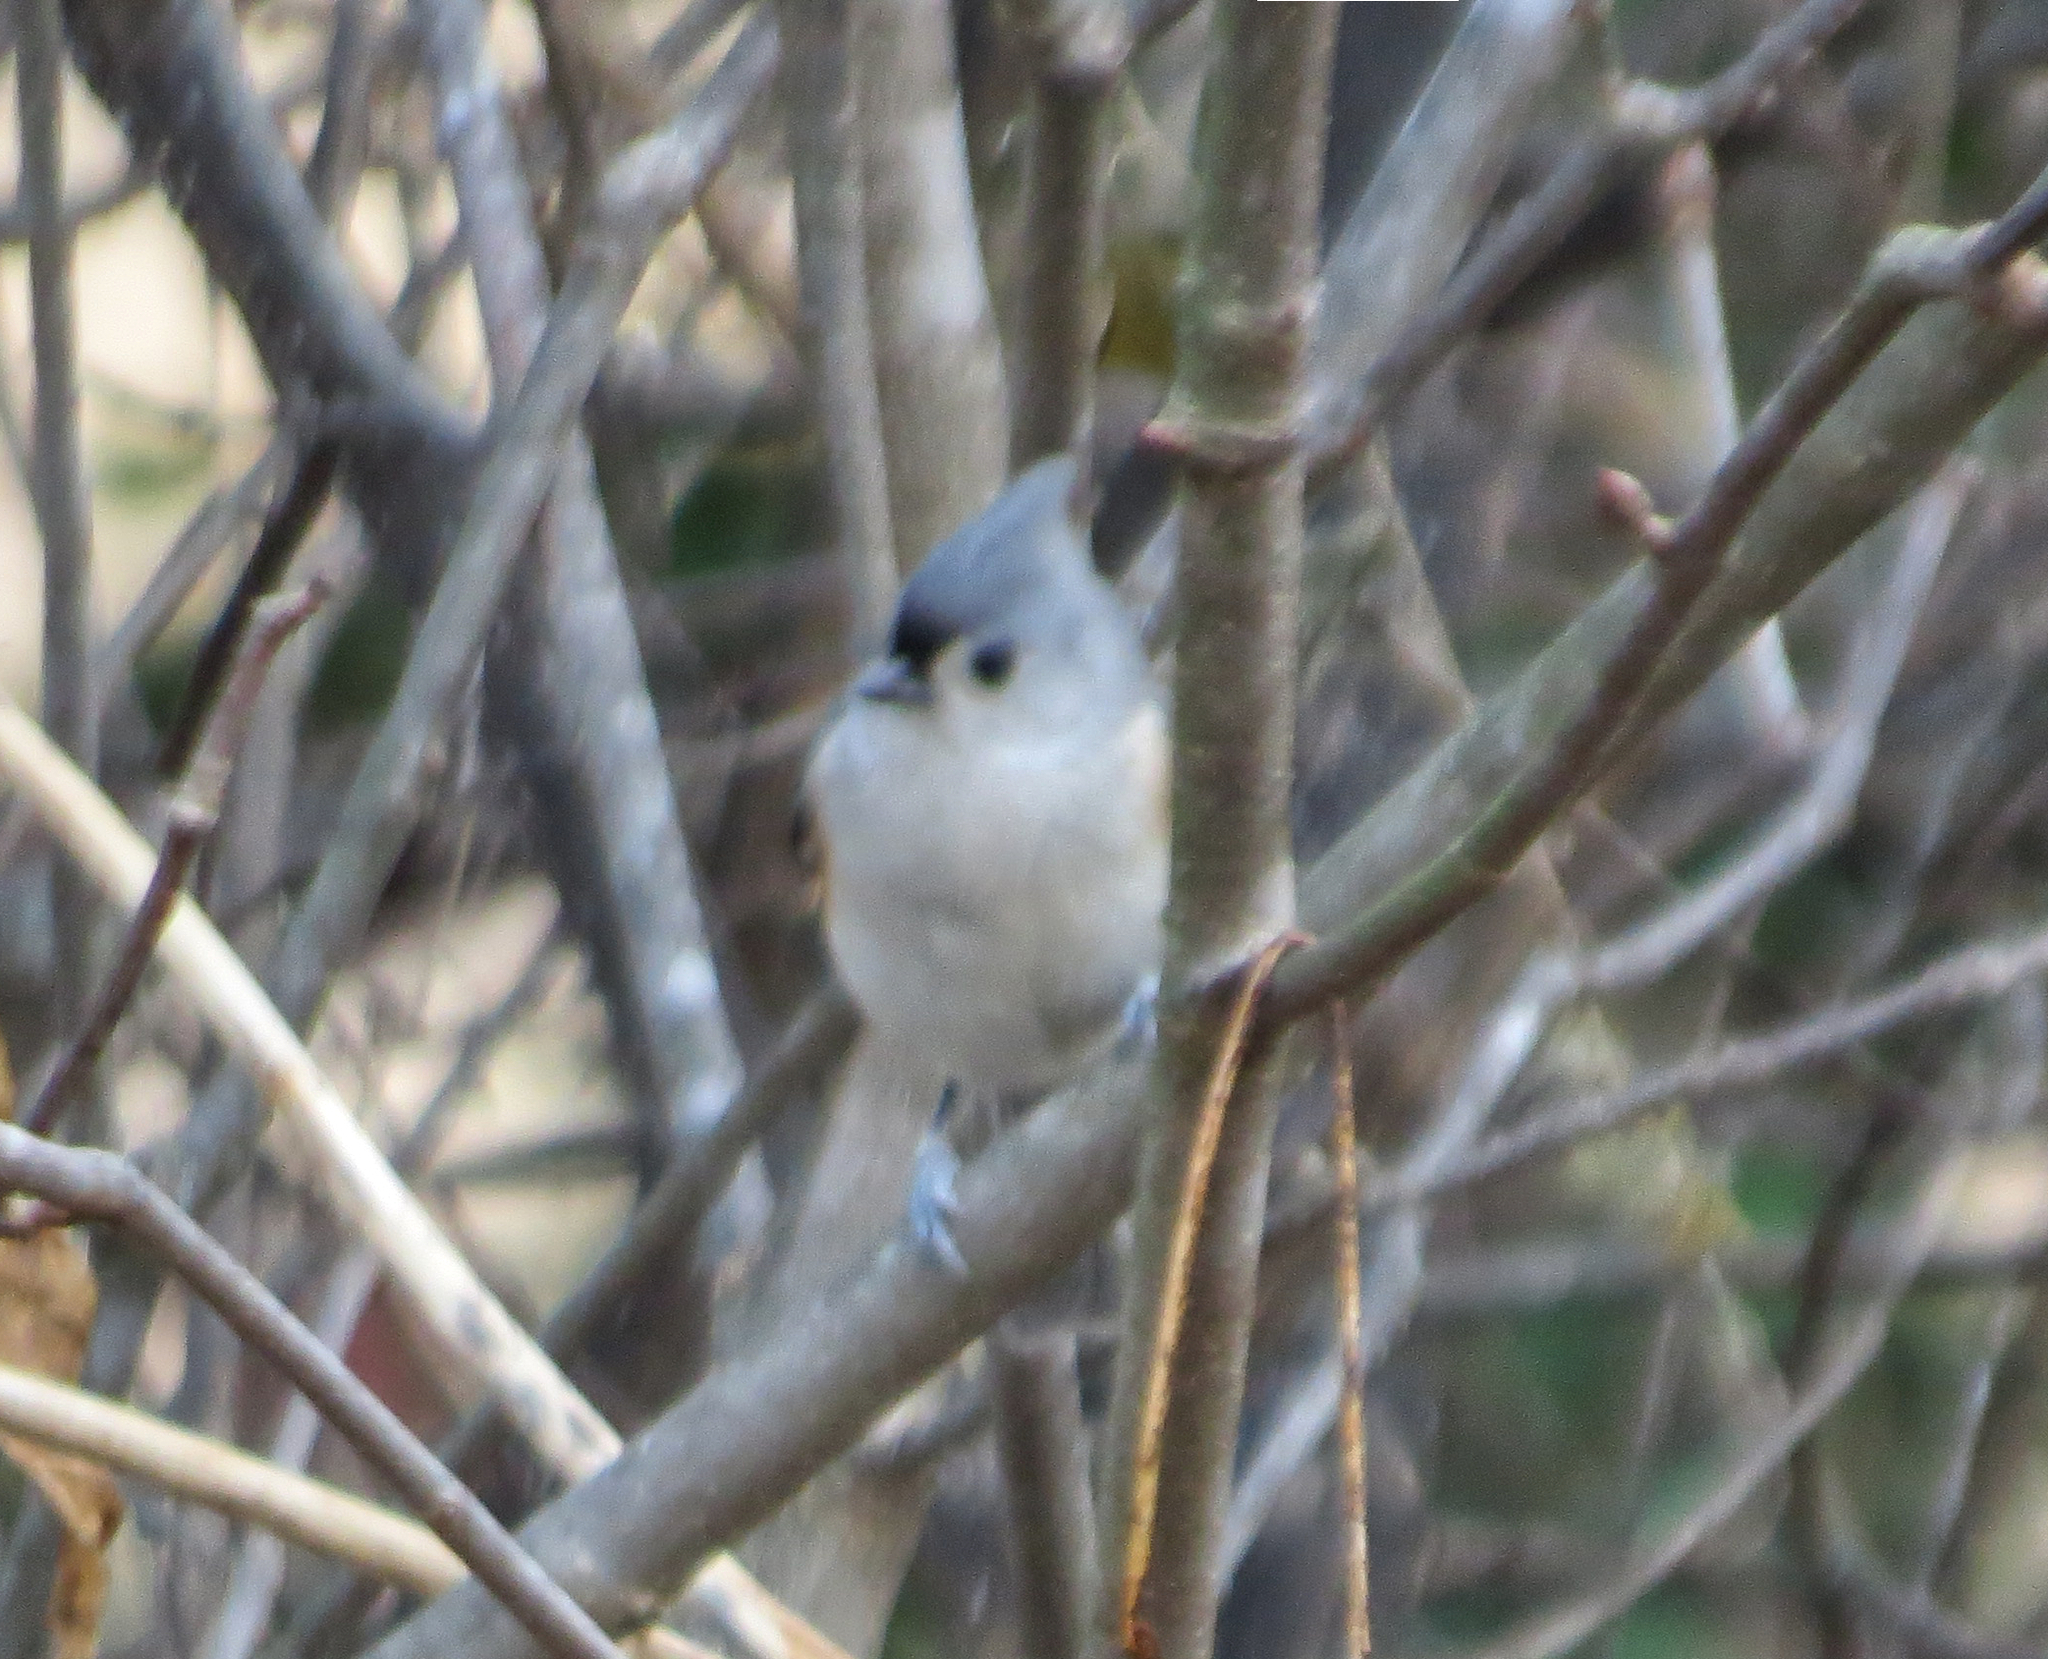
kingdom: Animalia
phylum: Chordata
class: Aves
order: Passeriformes
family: Paridae
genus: Baeolophus
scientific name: Baeolophus bicolor
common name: Tufted titmouse
